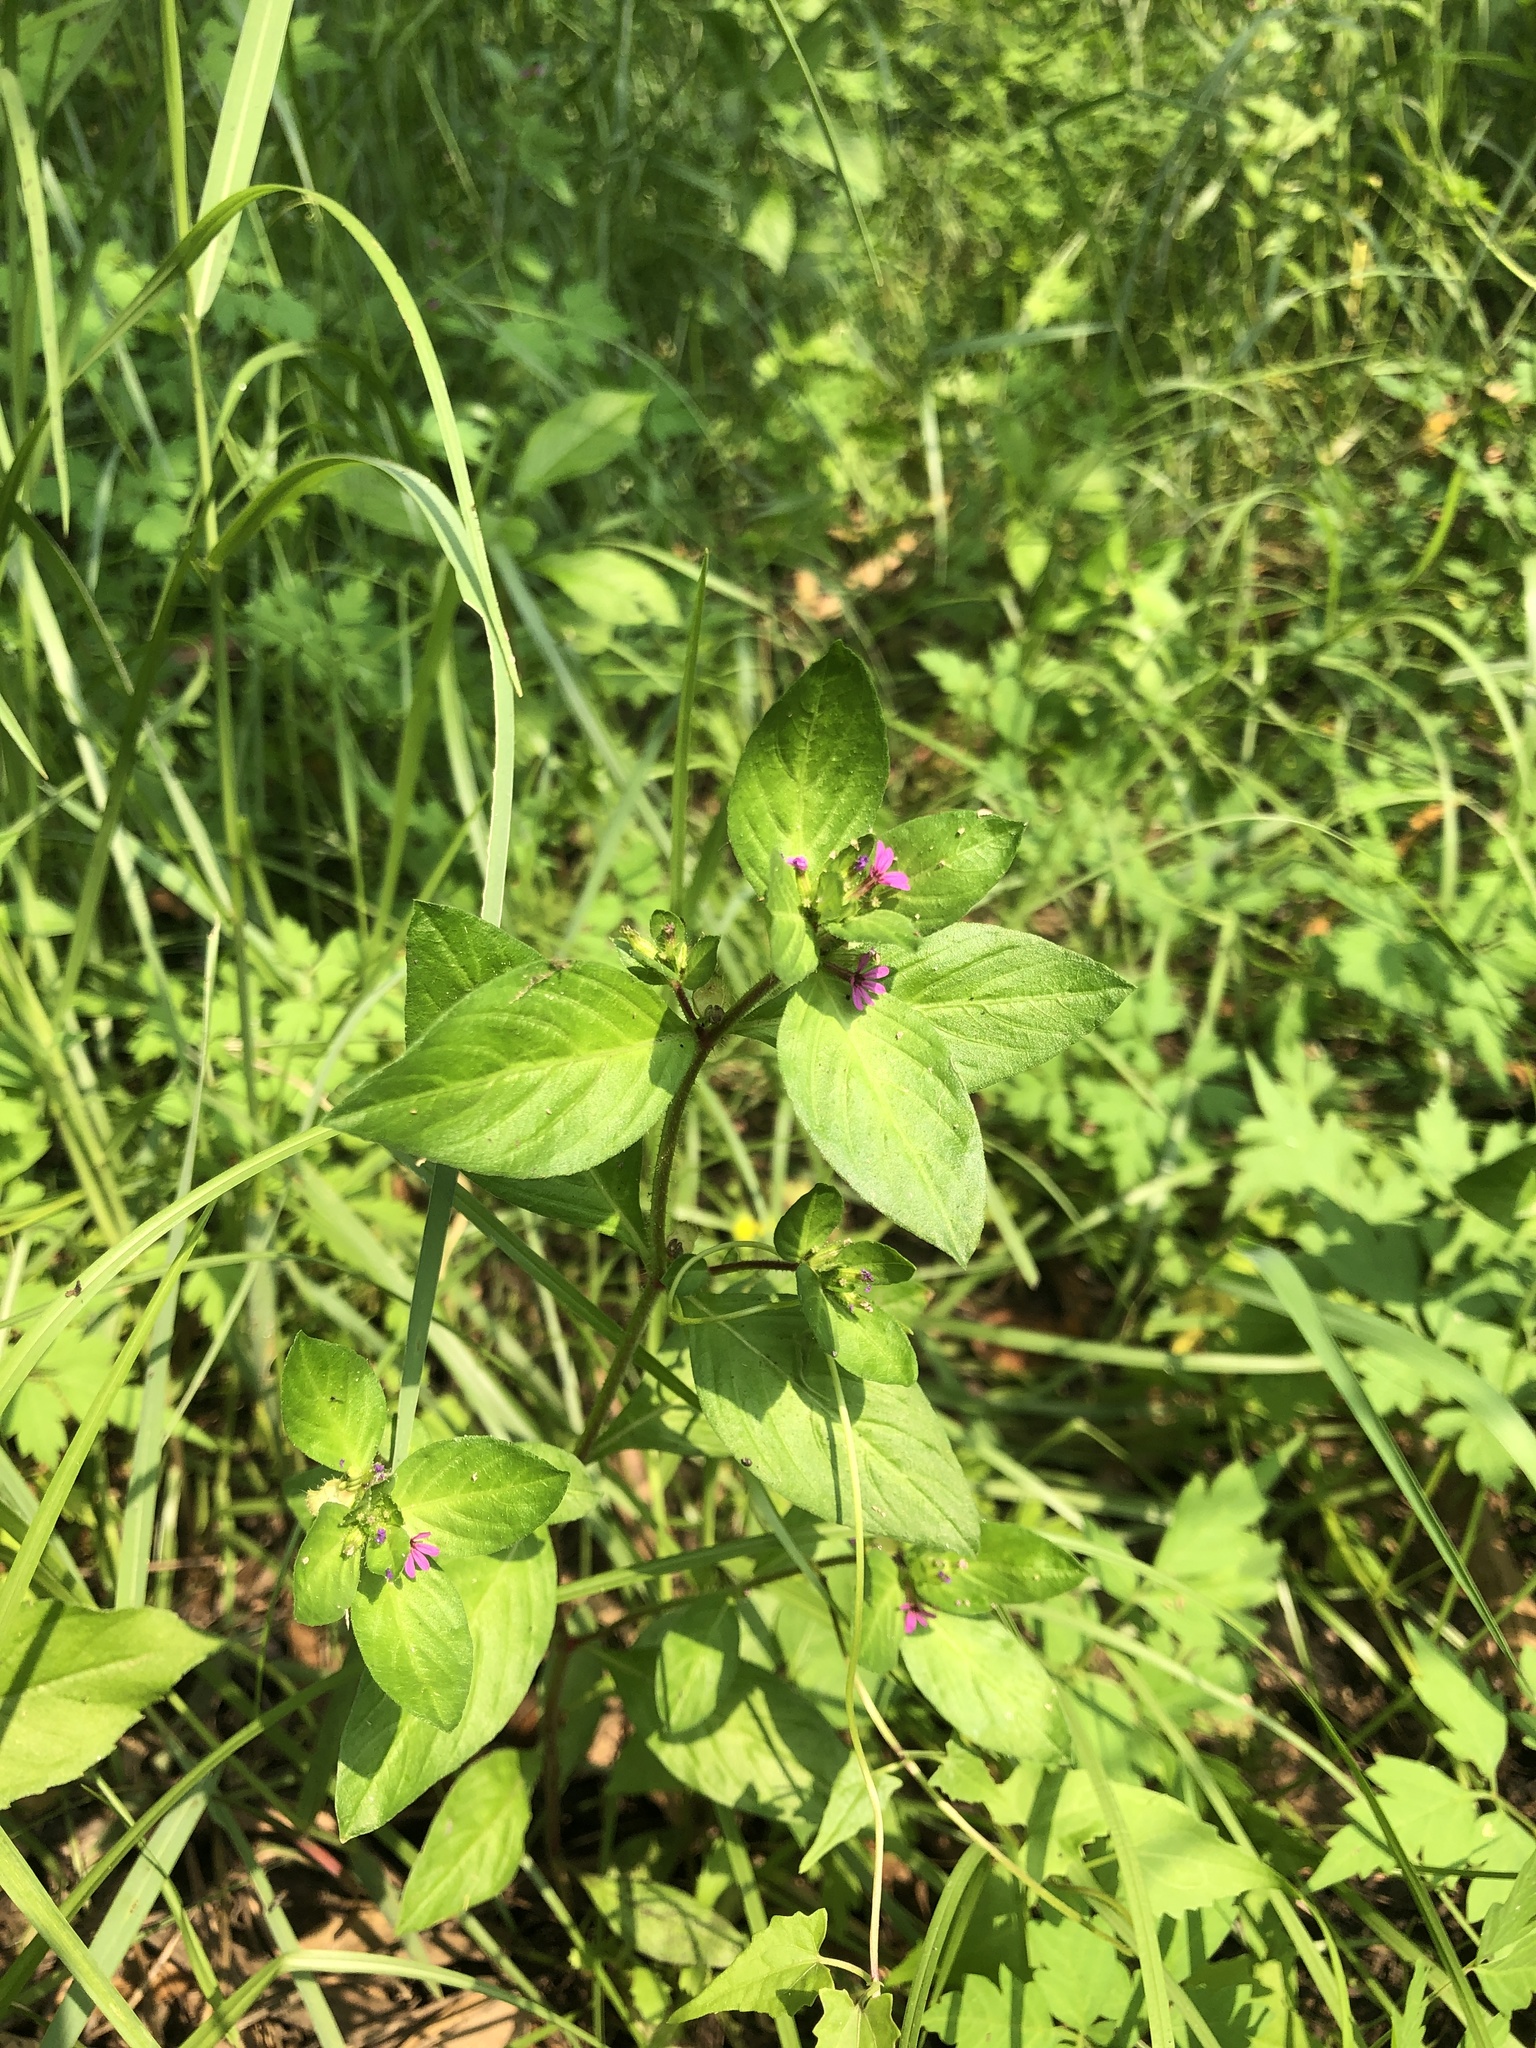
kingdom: Plantae
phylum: Tracheophyta
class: Magnoliopsida
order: Myrtales
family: Lythraceae
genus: Cuphea
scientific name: Cuphea carthagenensis
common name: Colombian waxweed
